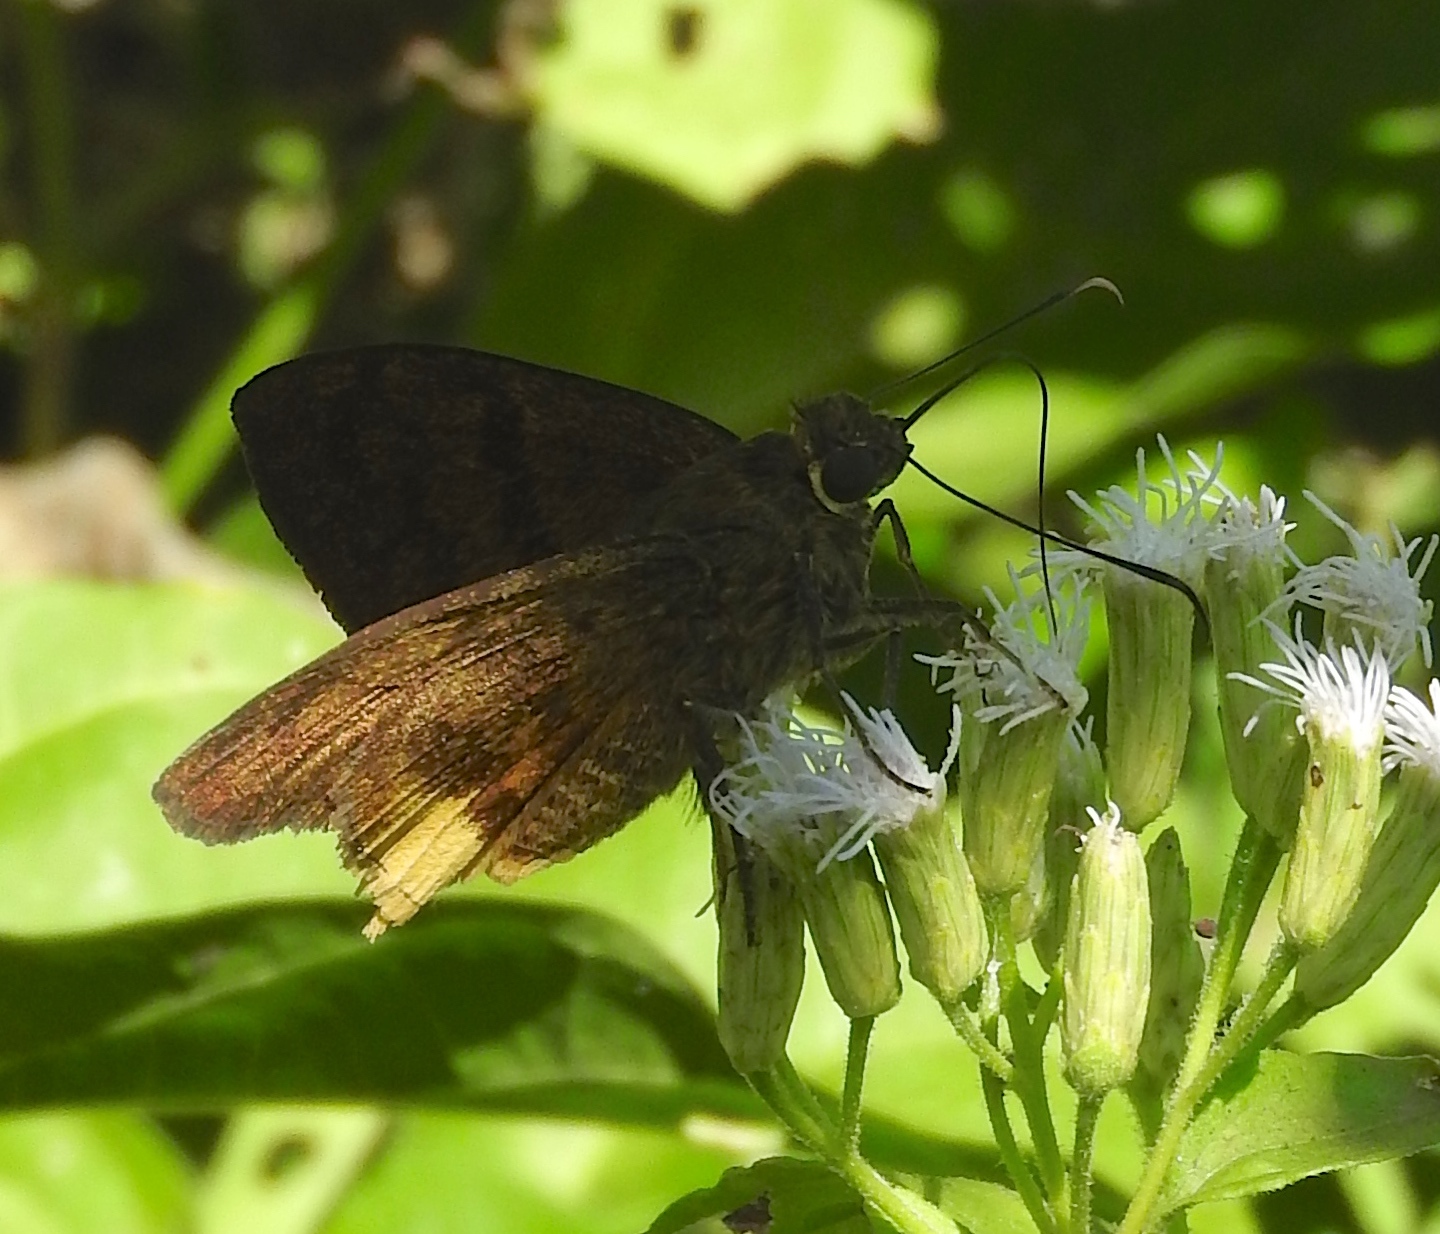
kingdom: Animalia
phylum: Arthropoda
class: Insecta
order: Lepidoptera
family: Hesperiidae
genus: Astraptes
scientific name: Astraptes
